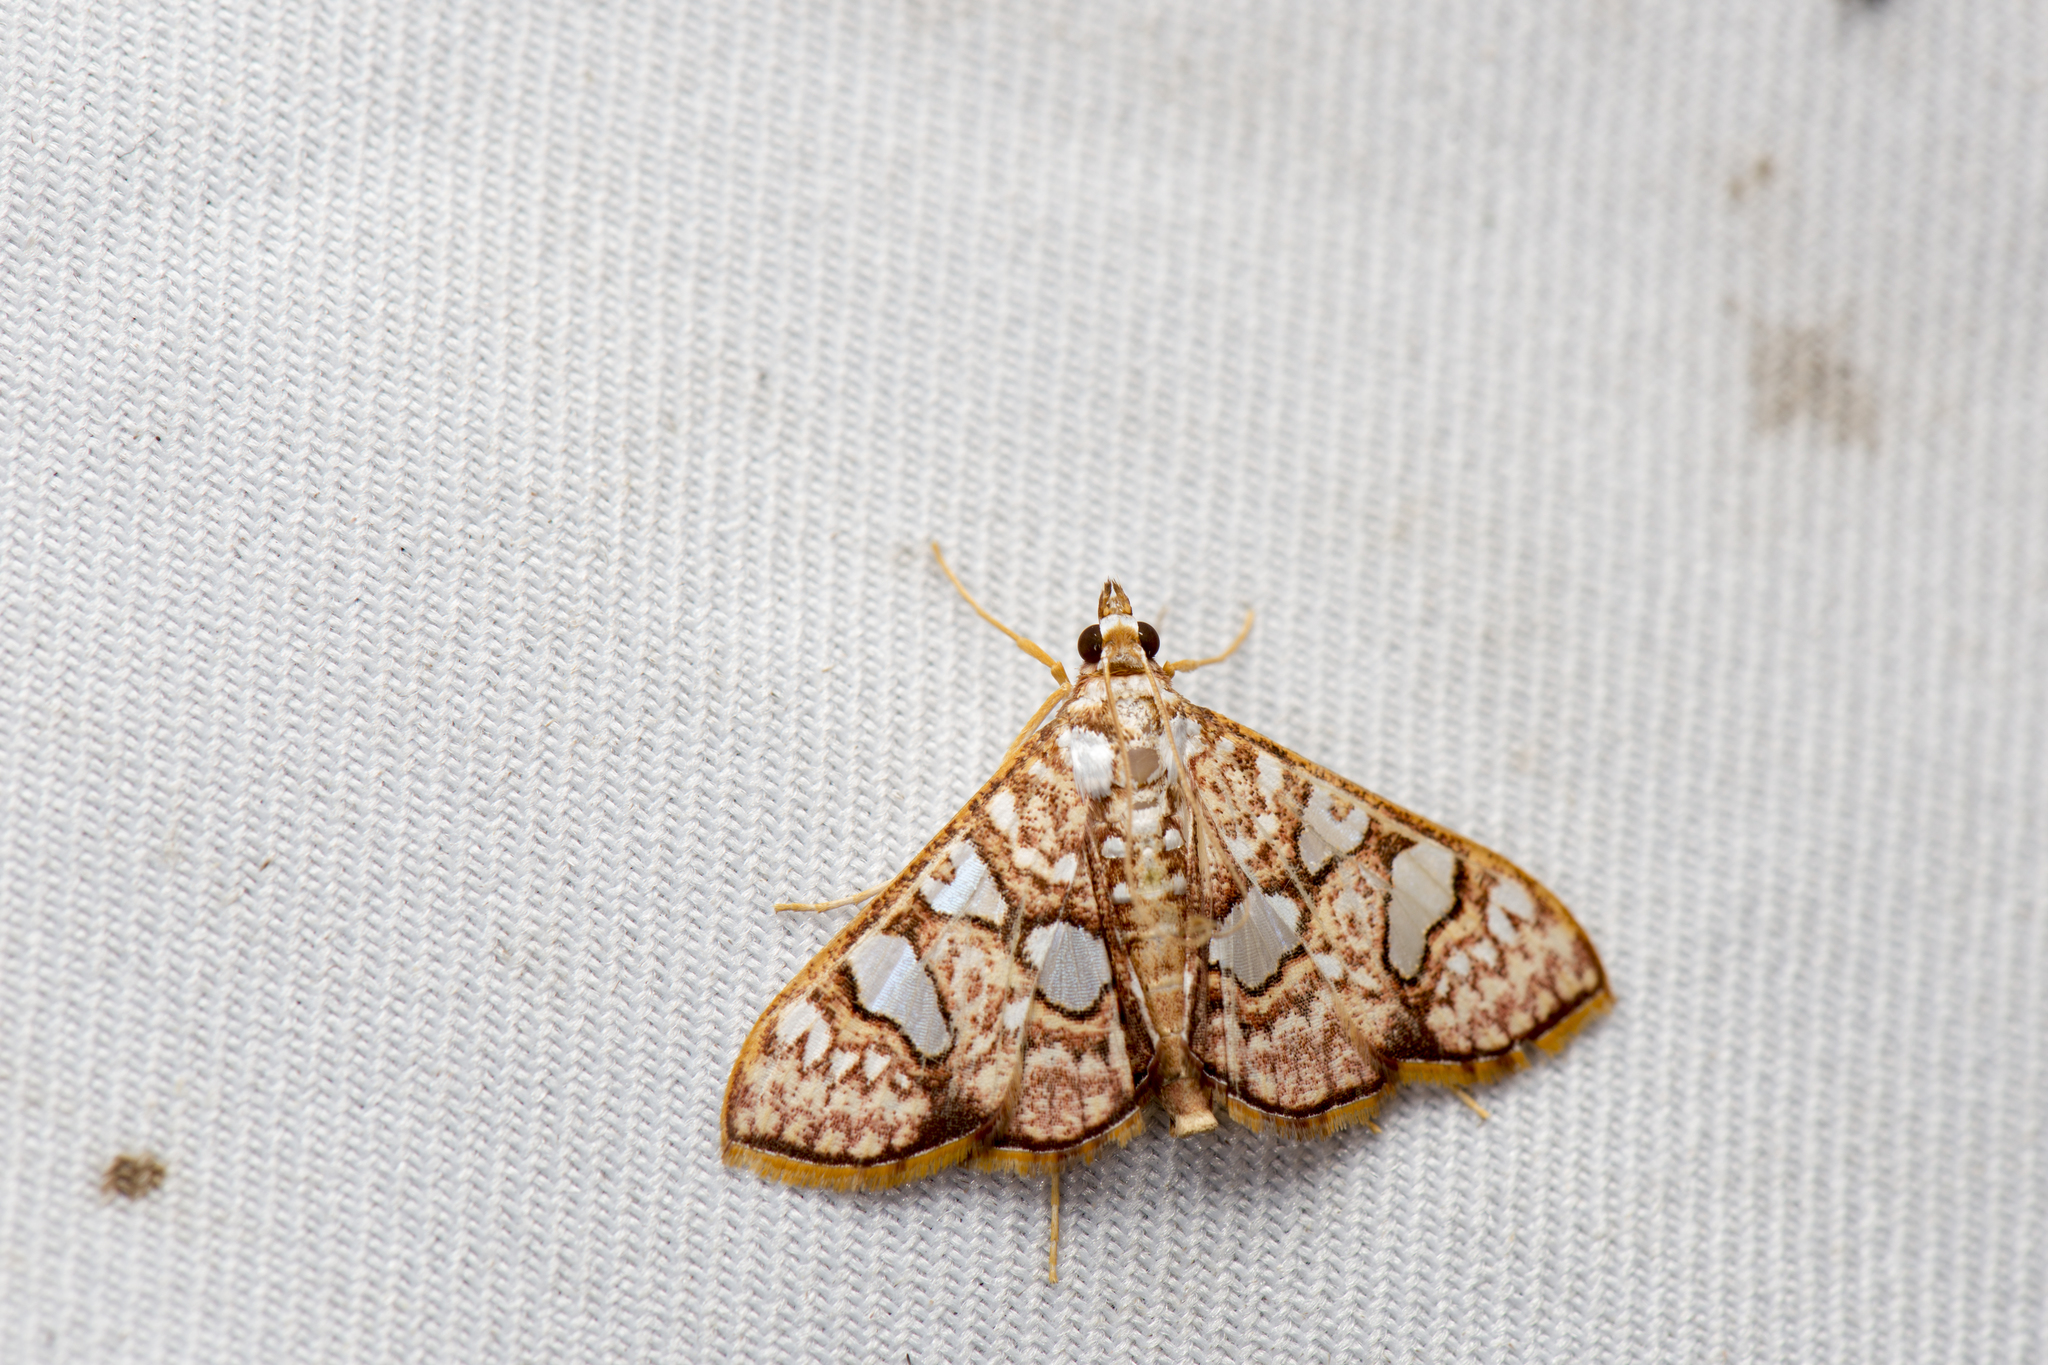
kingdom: Animalia
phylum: Arthropoda
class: Insecta
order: Lepidoptera
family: Crambidae
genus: Glyphodes
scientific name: Glyphodes canthusalis
